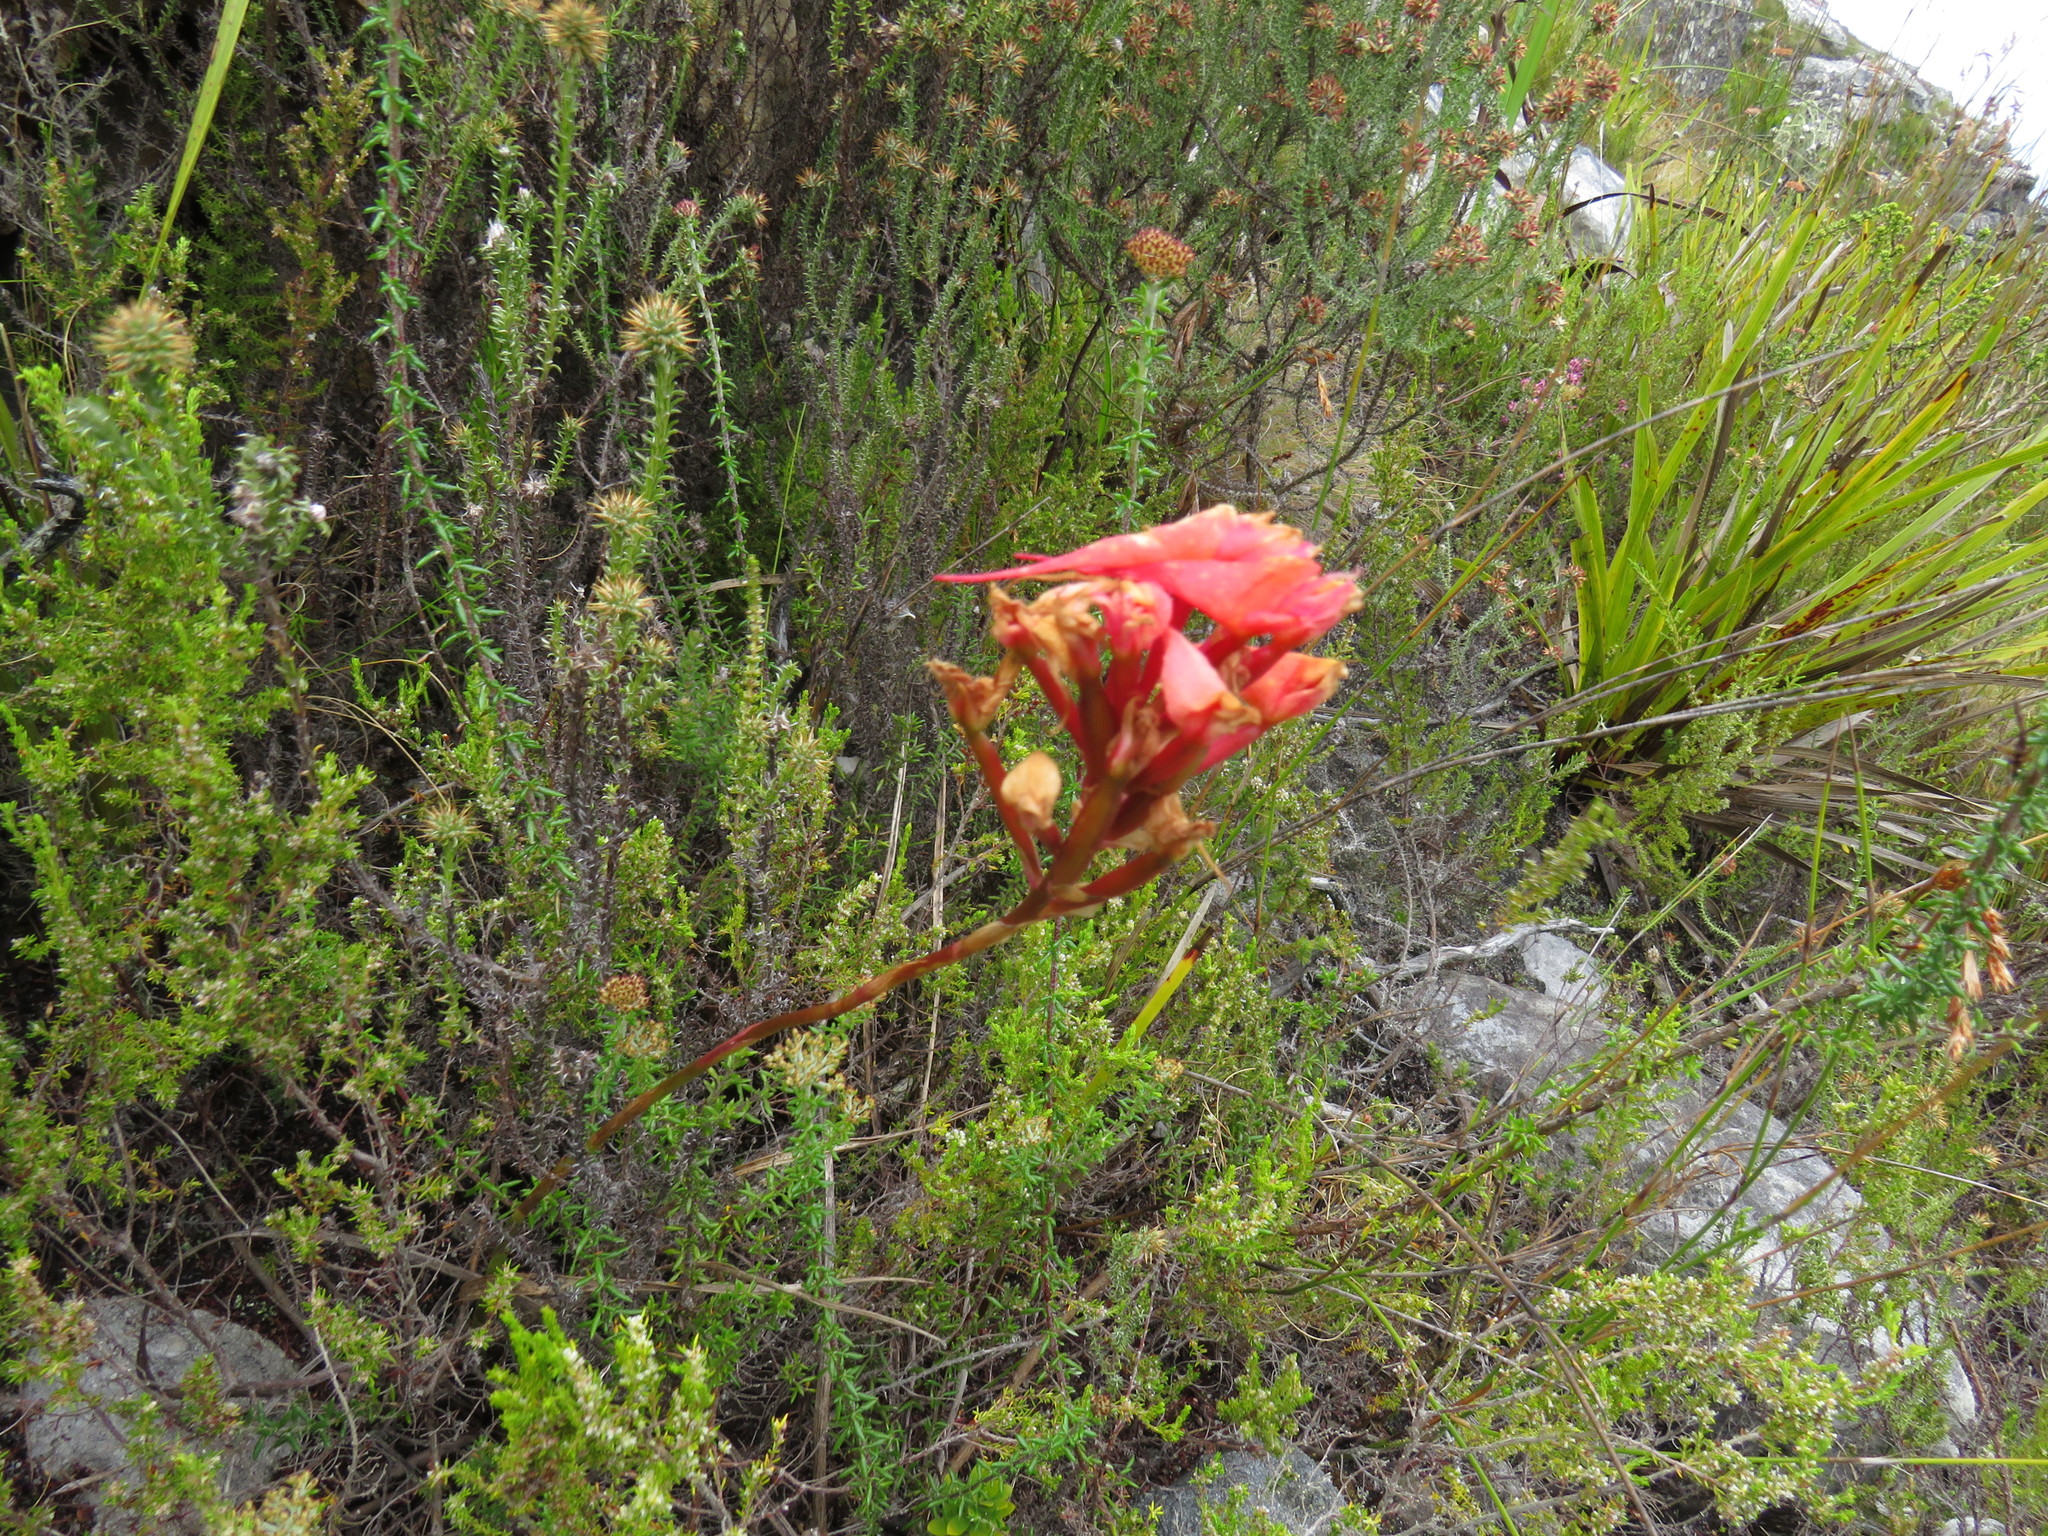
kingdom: Plantae
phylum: Tracheophyta
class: Liliopsida
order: Asparagales
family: Orchidaceae
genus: Disa
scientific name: Disa ferruginea
